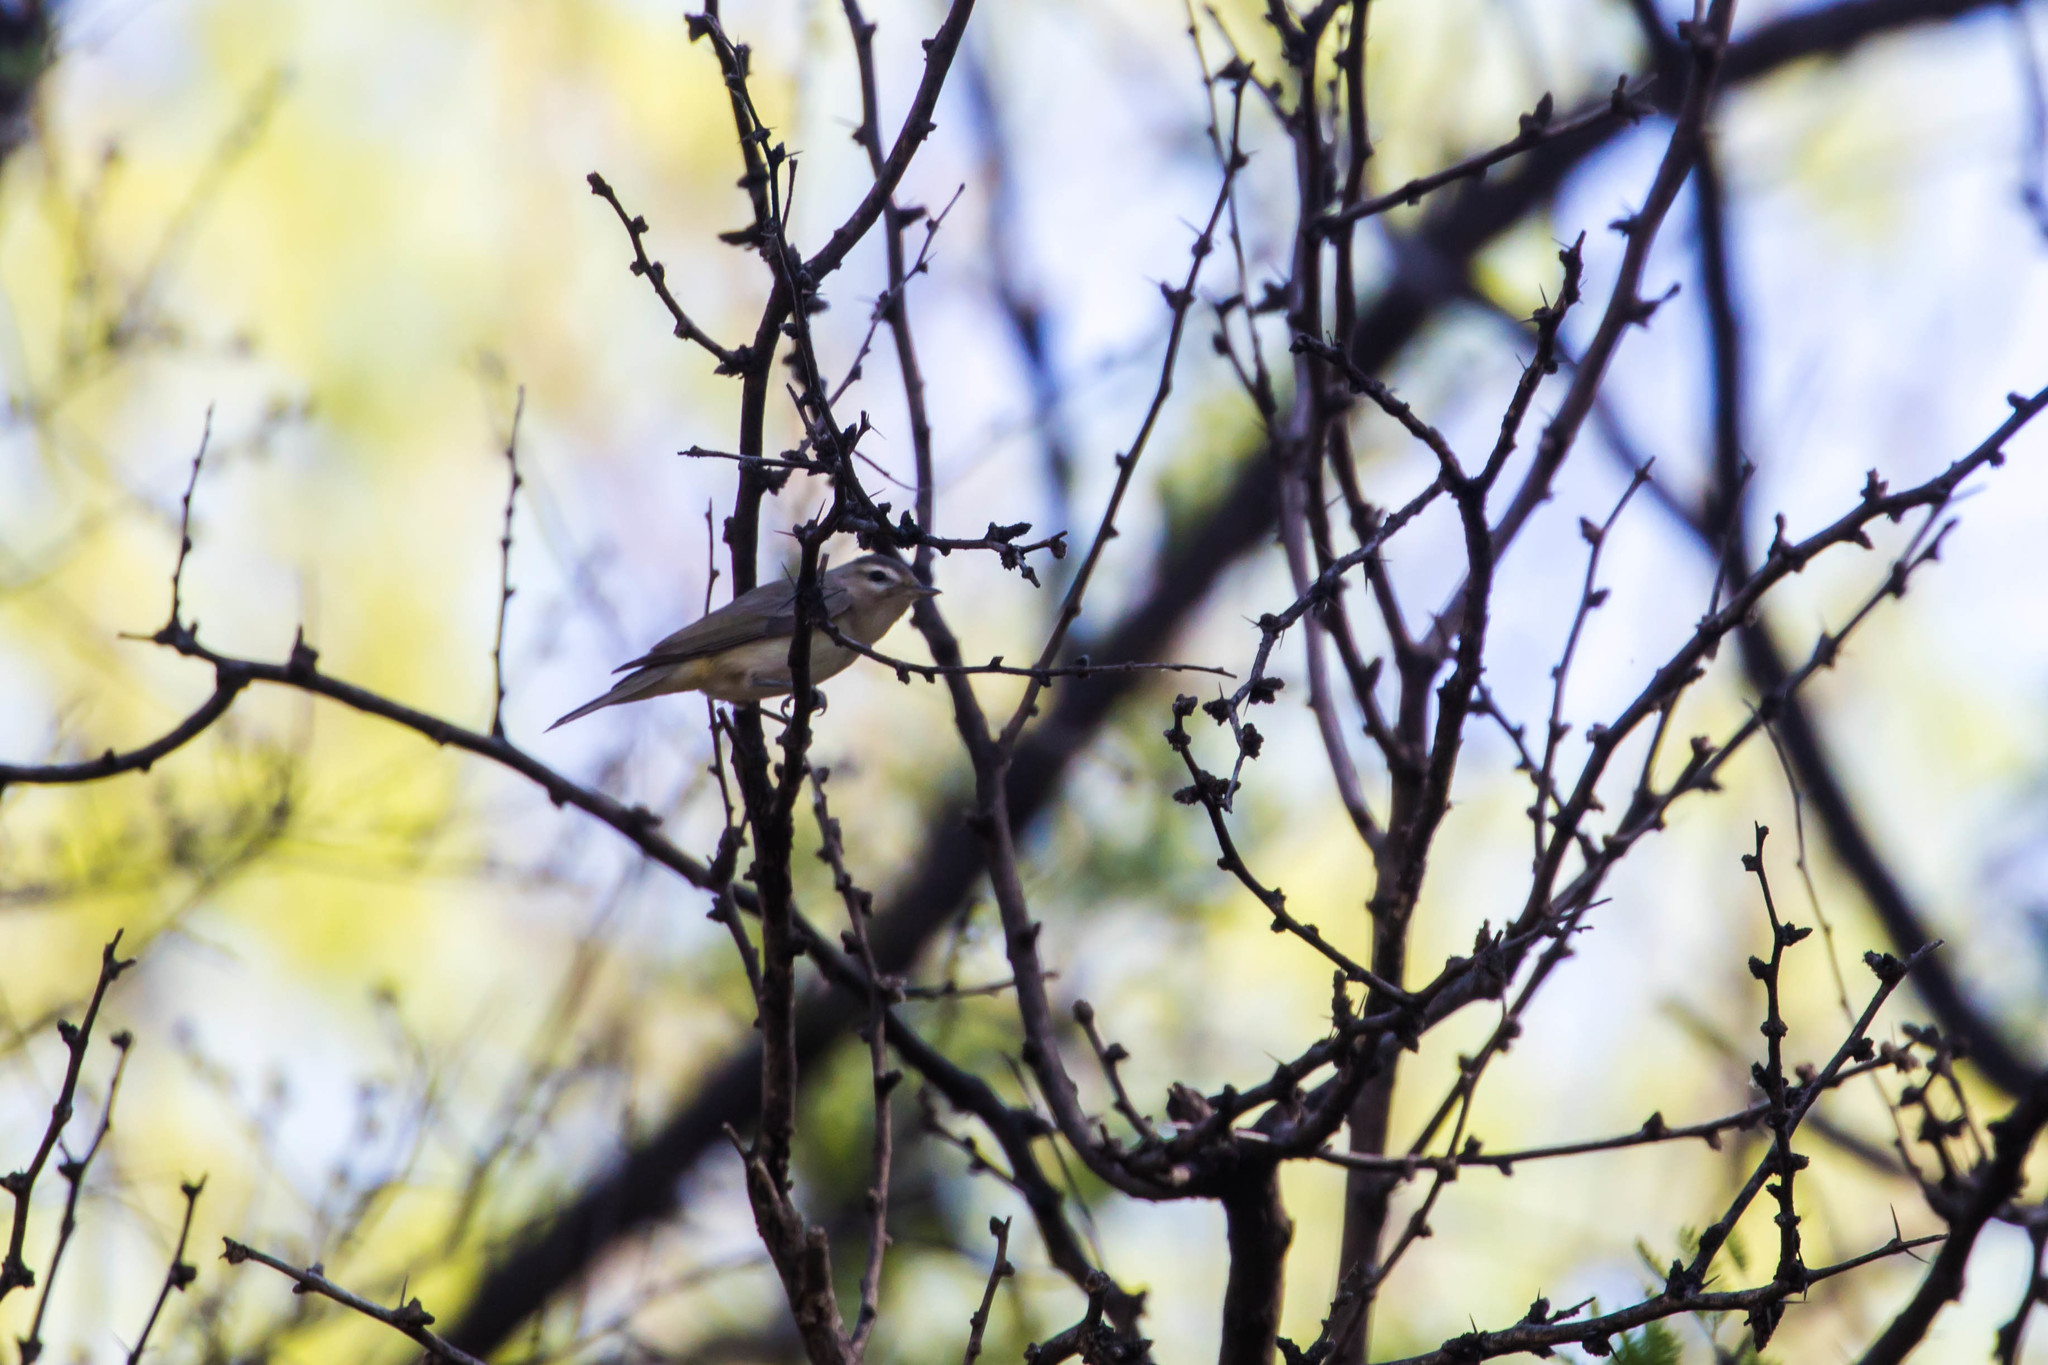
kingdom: Animalia
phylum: Chordata
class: Aves
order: Passeriformes
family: Vireonidae
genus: Vireo
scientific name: Vireo gilvus
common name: Warbling vireo
